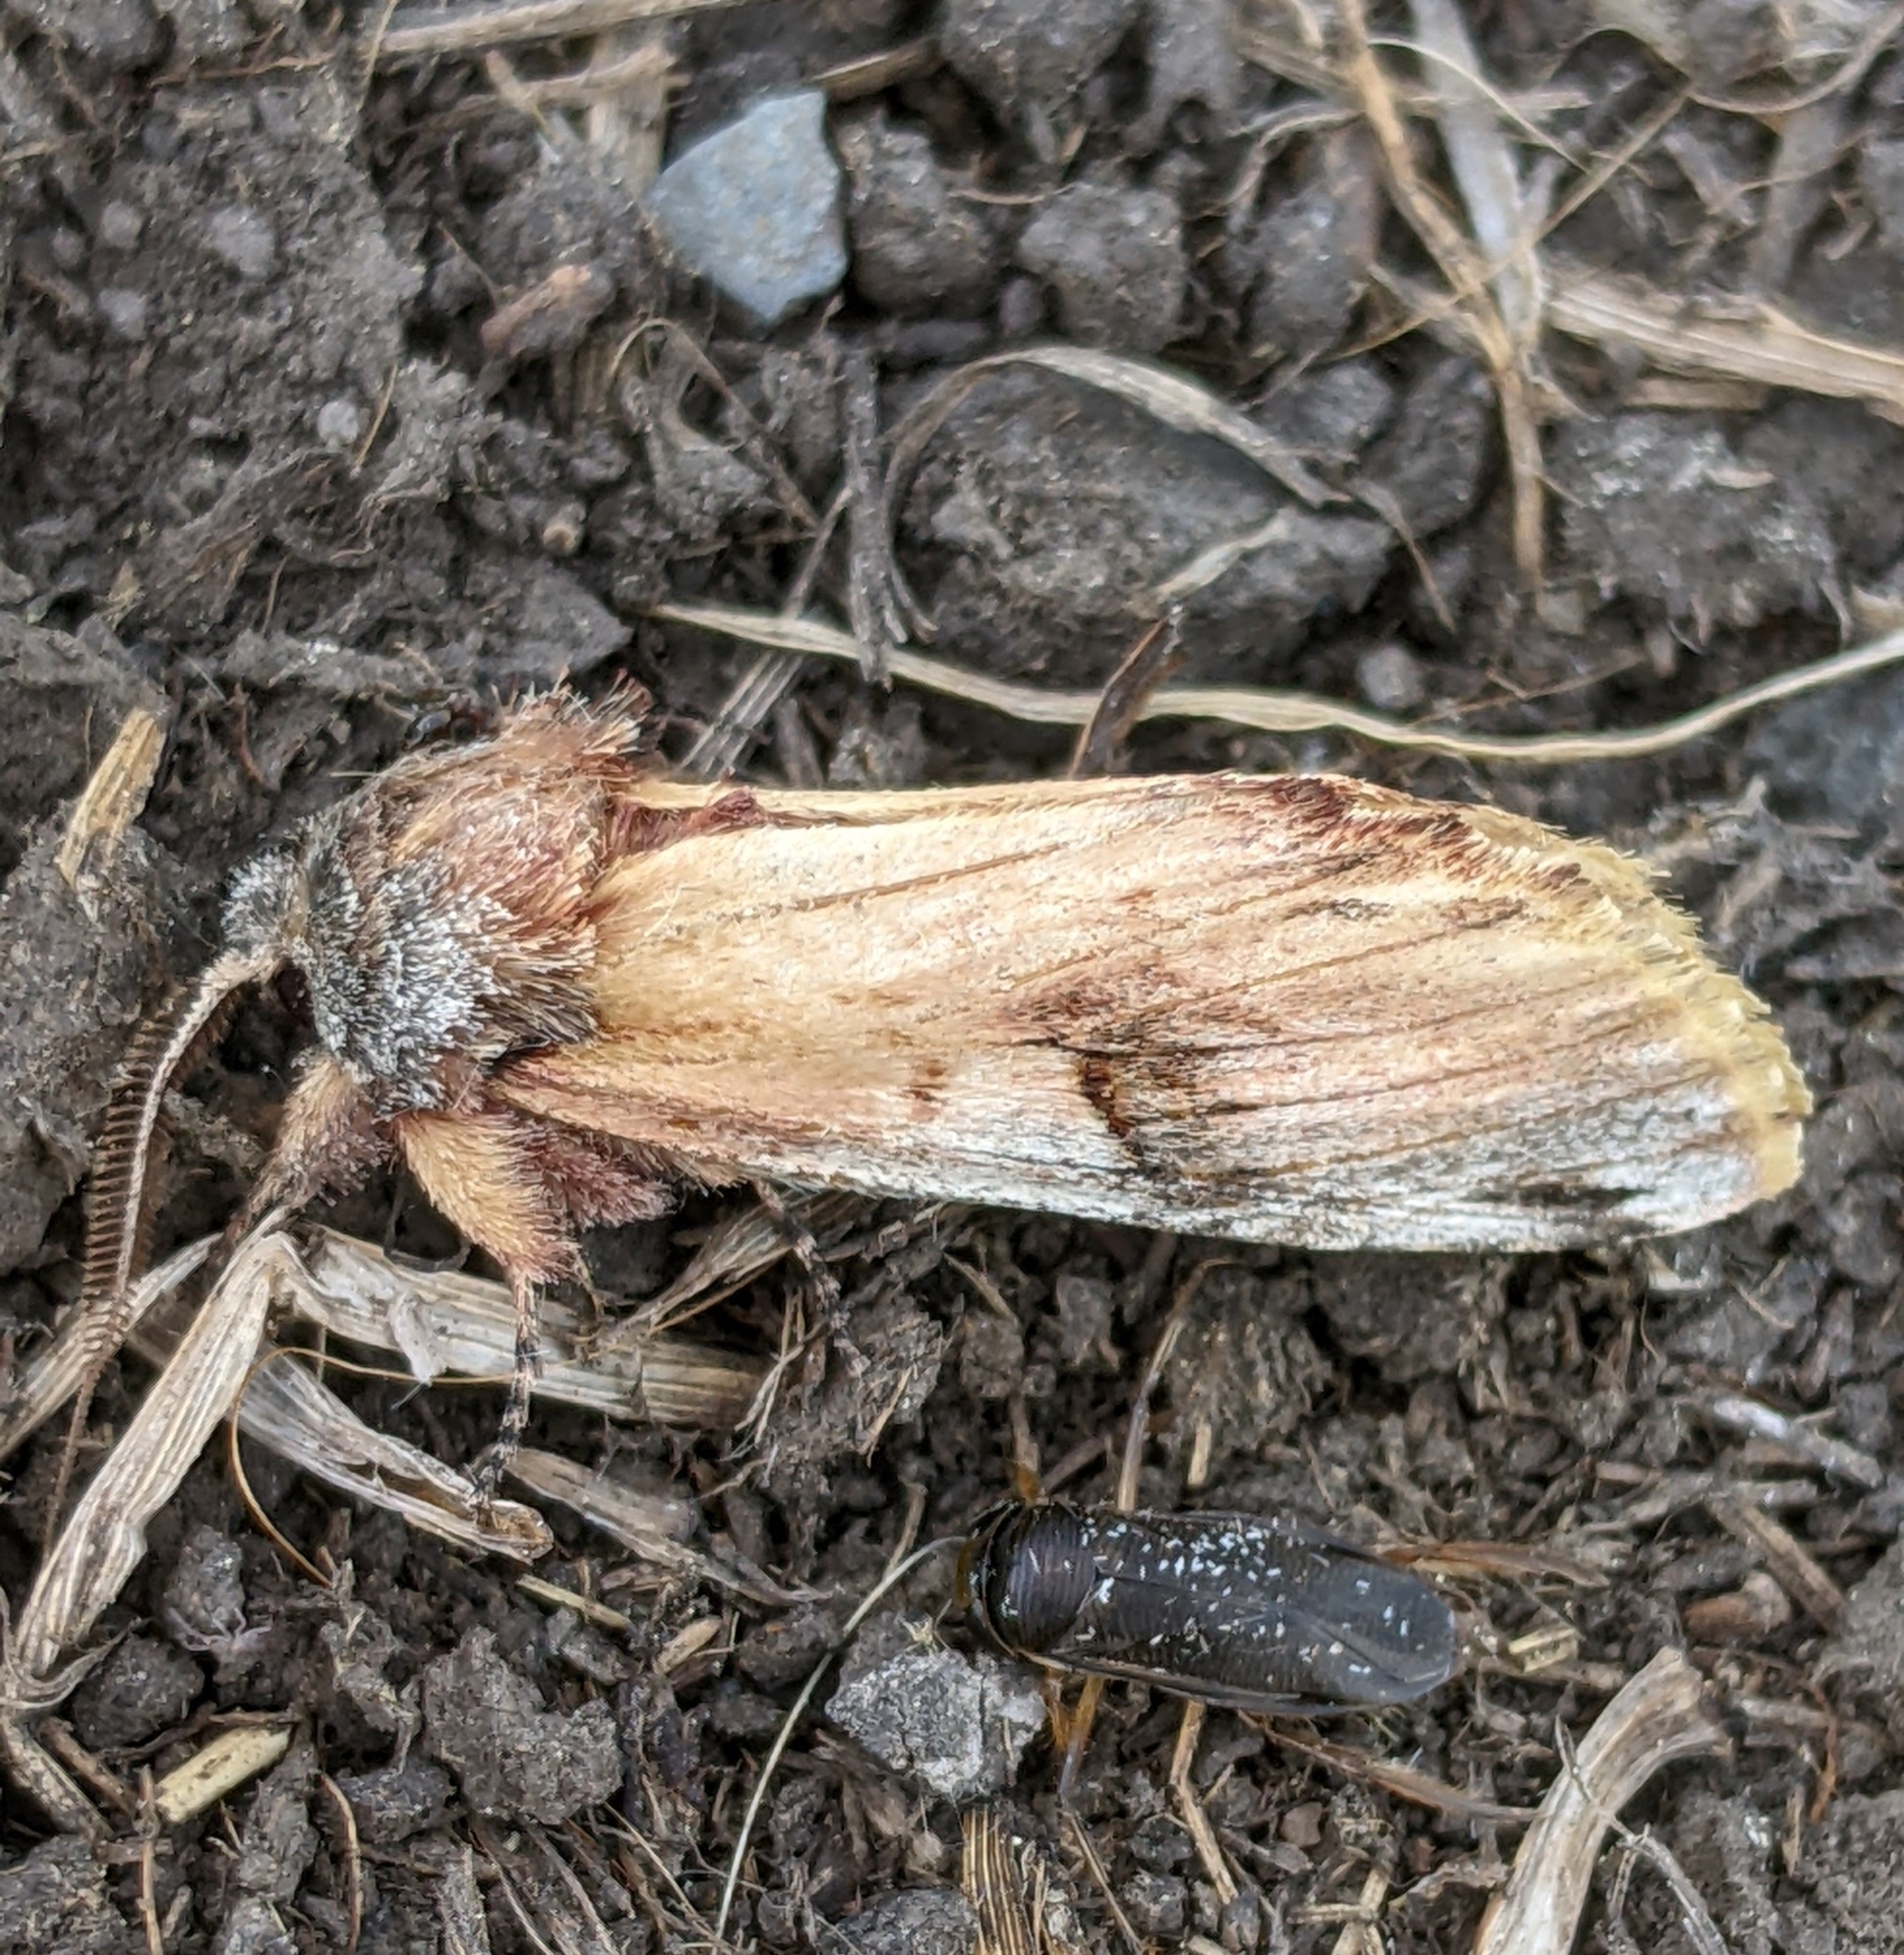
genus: Ianassa
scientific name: Ianassa
